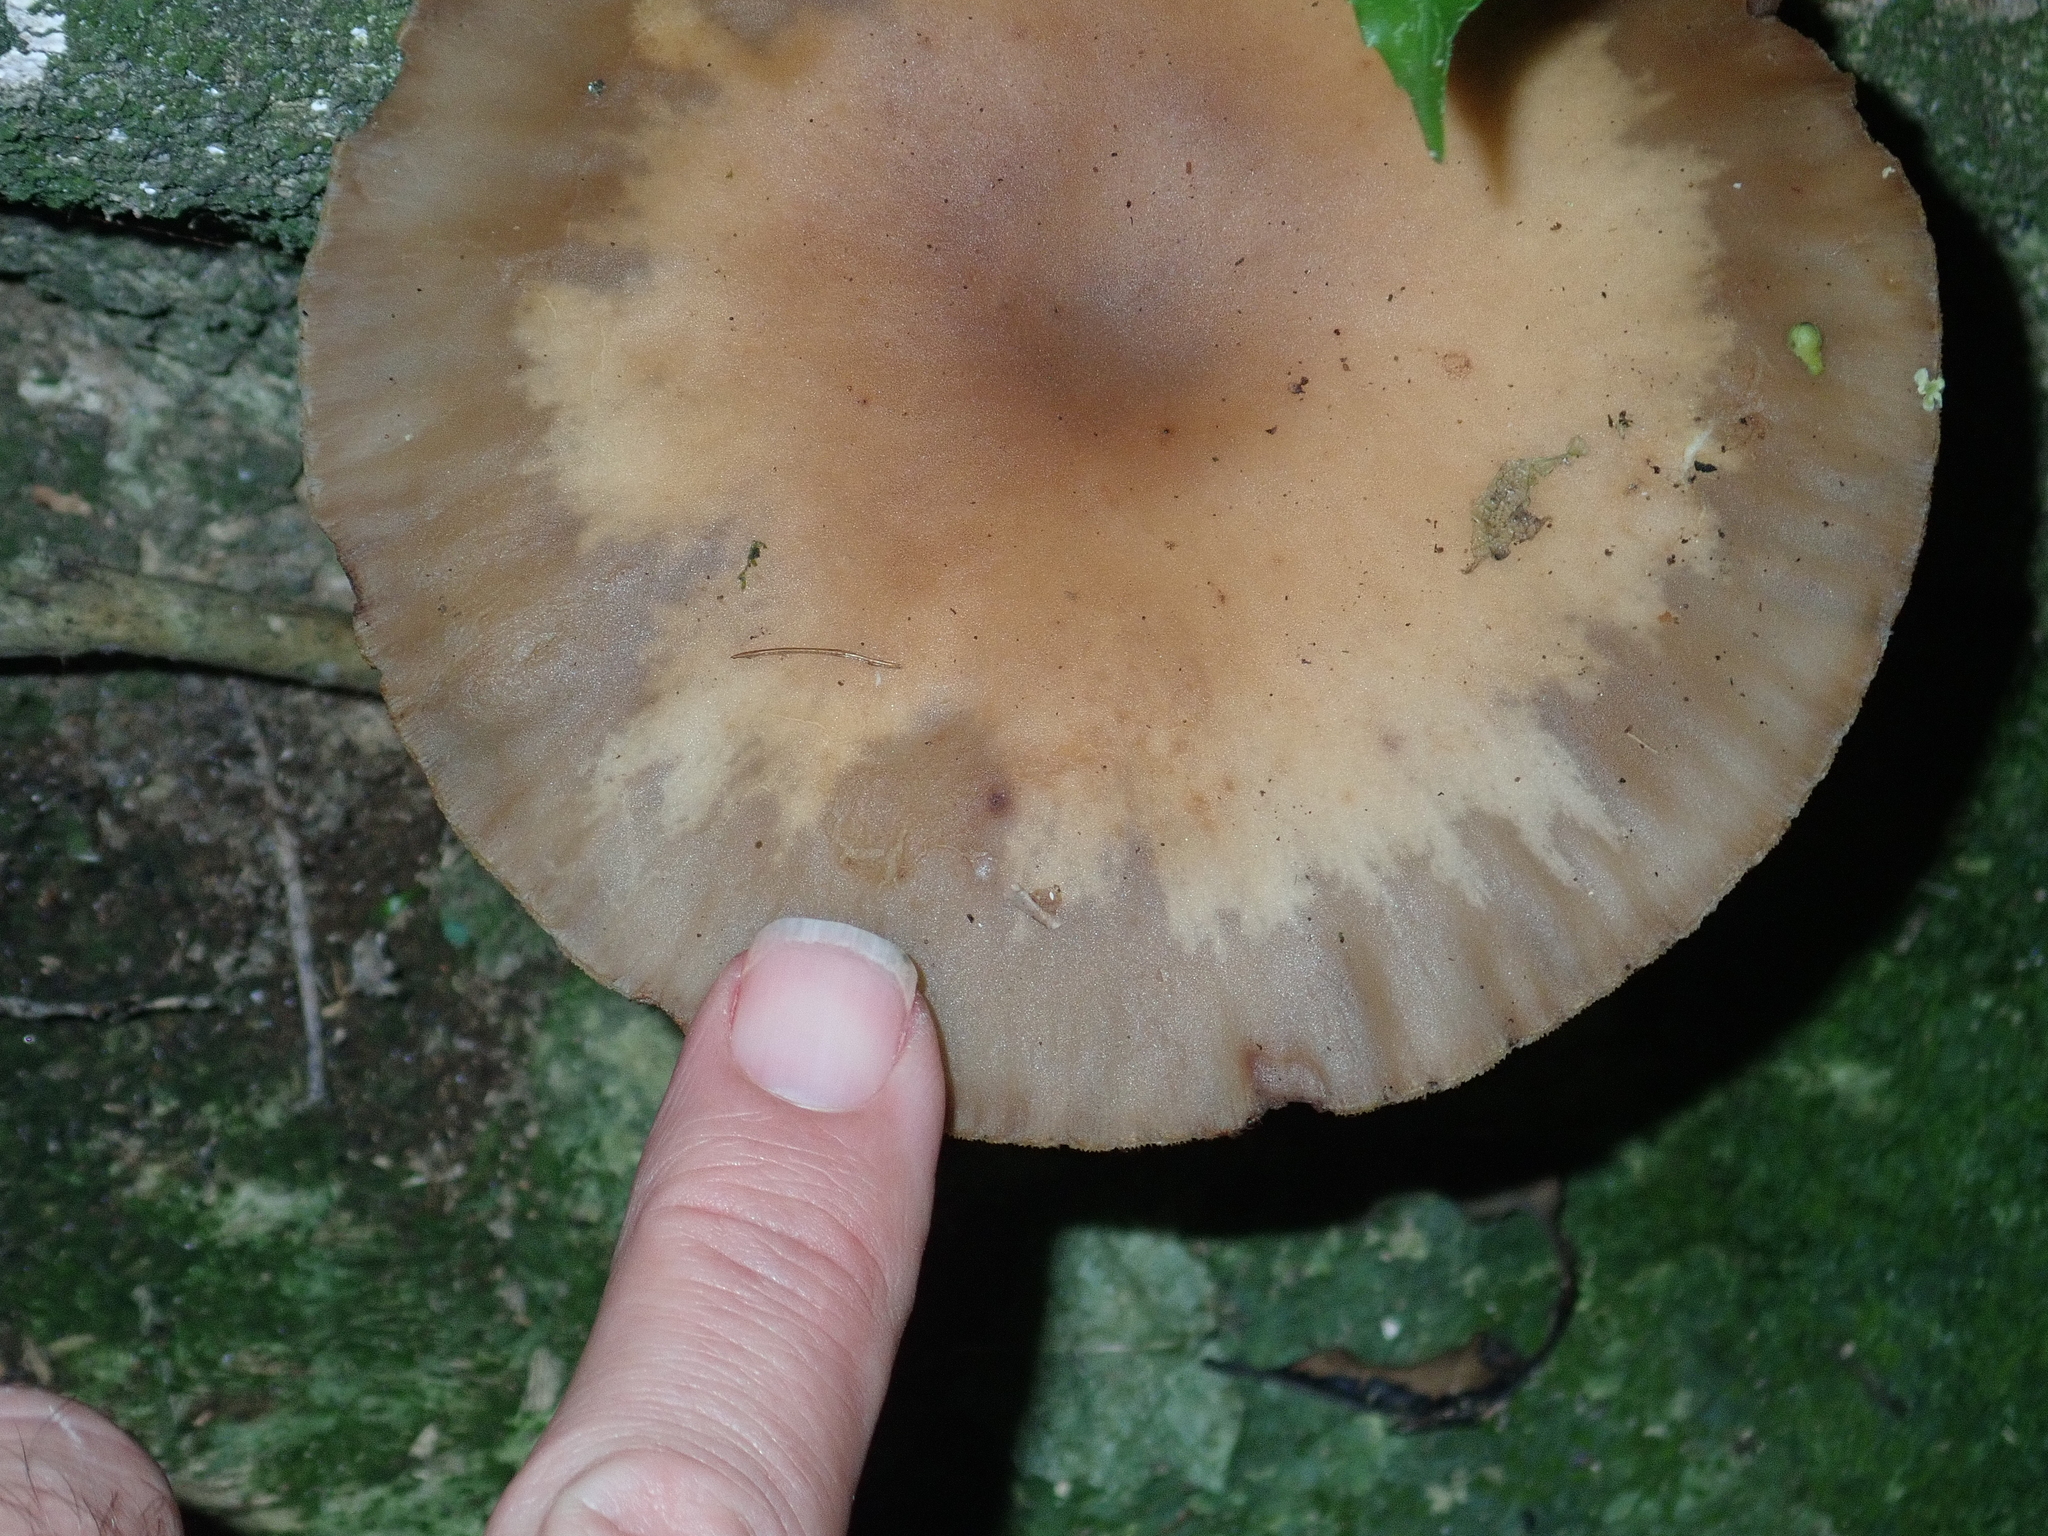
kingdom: Fungi
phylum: Basidiomycota
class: Agaricomycetes
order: Agaricales
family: Tubariaceae
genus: Cyclocybe
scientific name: Cyclocybe parasitica
